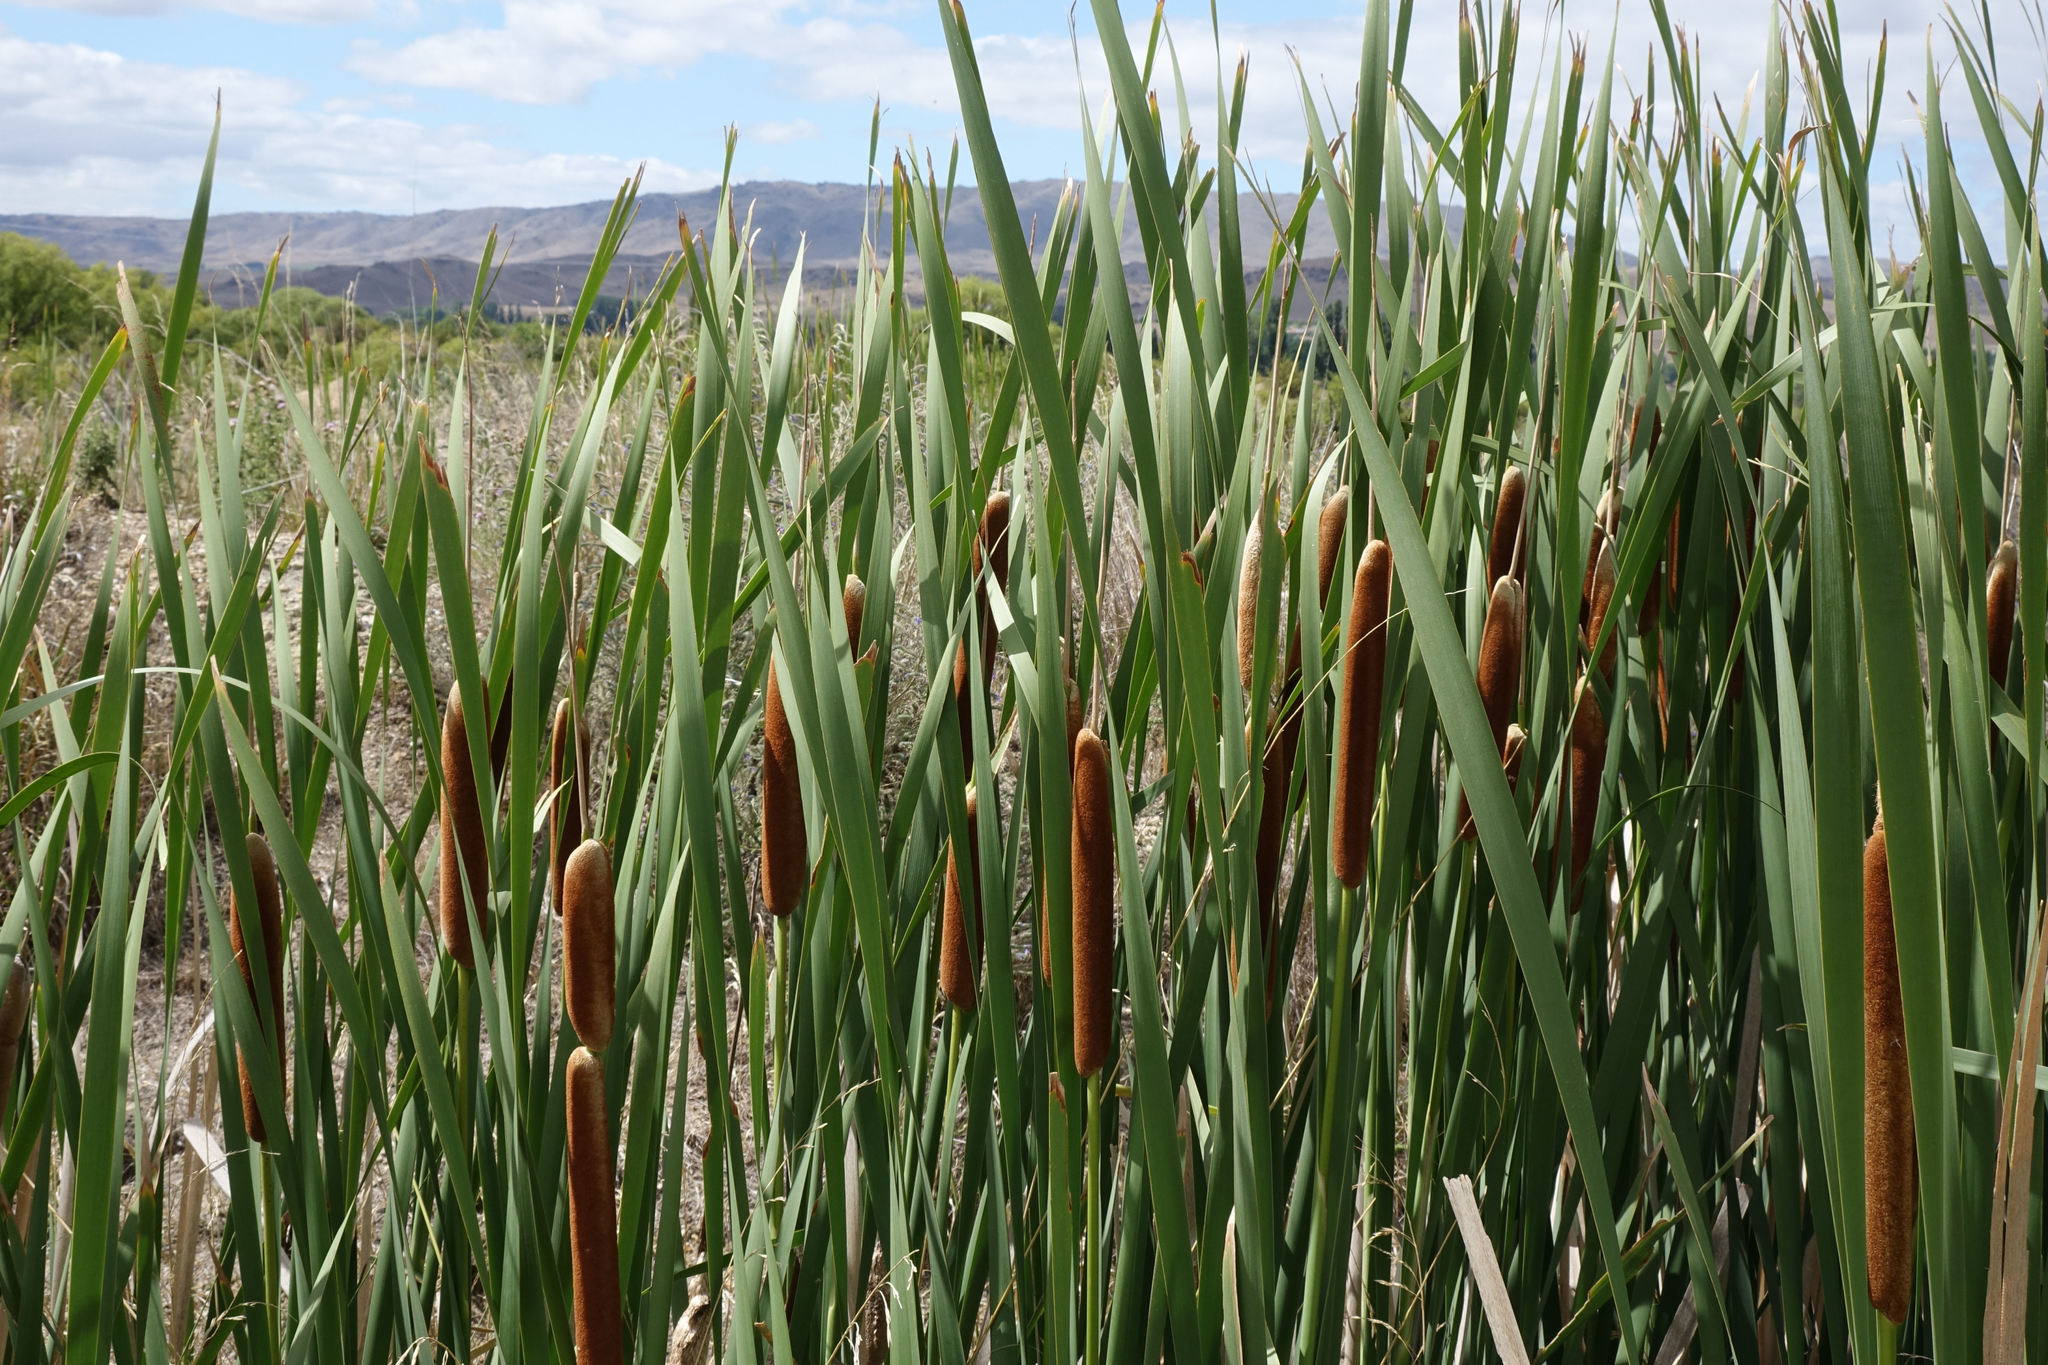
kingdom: Plantae
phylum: Tracheophyta
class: Liliopsida
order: Poales
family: Typhaceae
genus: Typha
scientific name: Typha orientalis
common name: Bullrush
